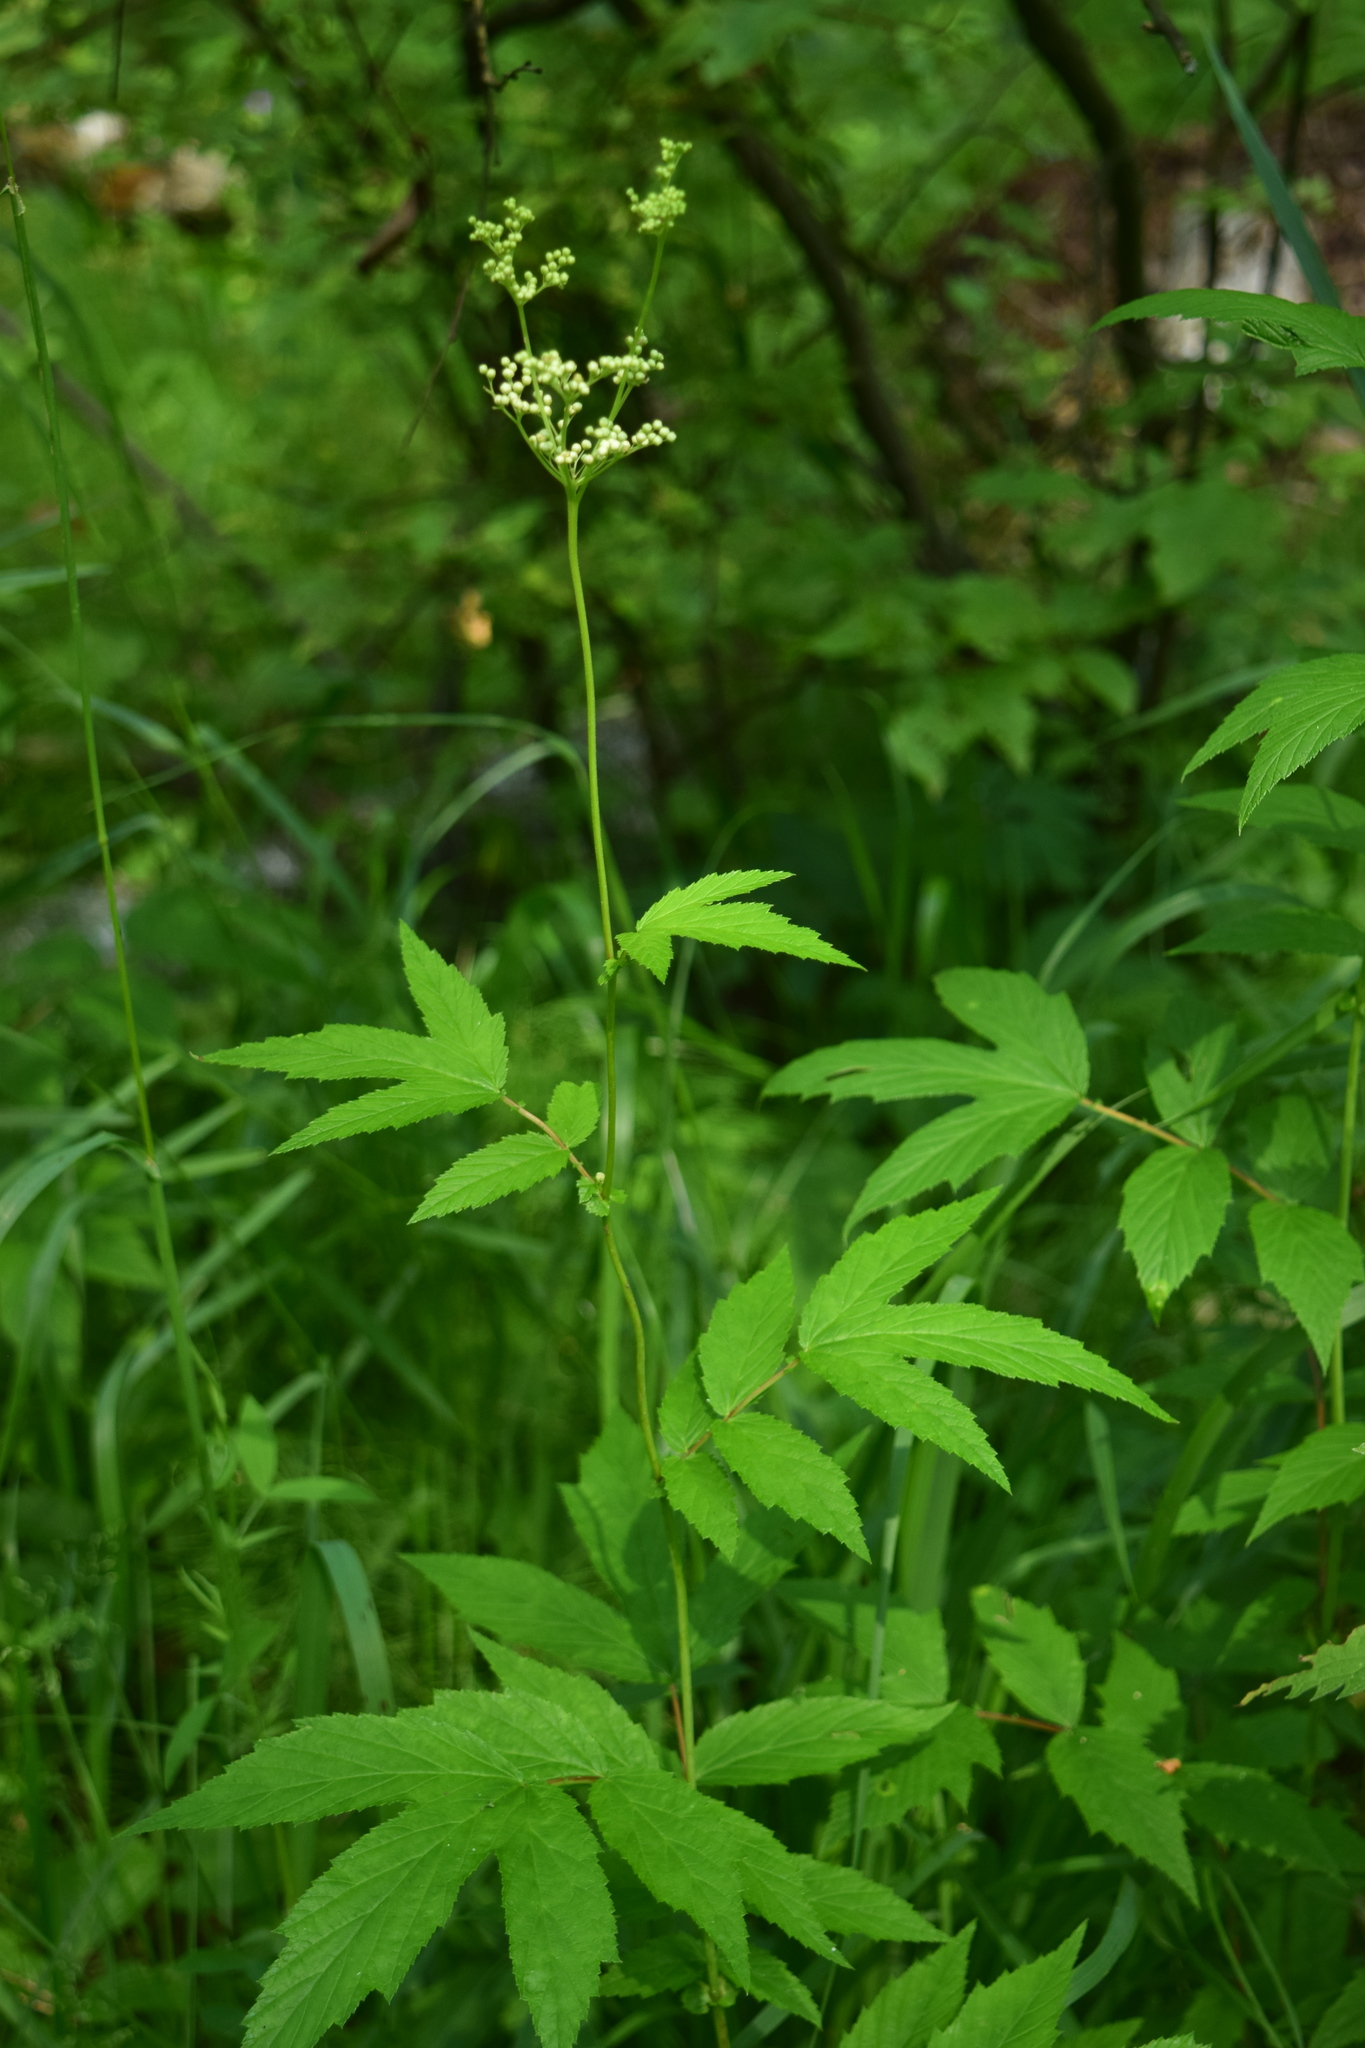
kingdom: Plantae
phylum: Tracheophyta
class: Magnoliopsida
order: Rosales
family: Rosaceae
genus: Filipendula
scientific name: Filipendula ulmaria
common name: Meadowsweet
